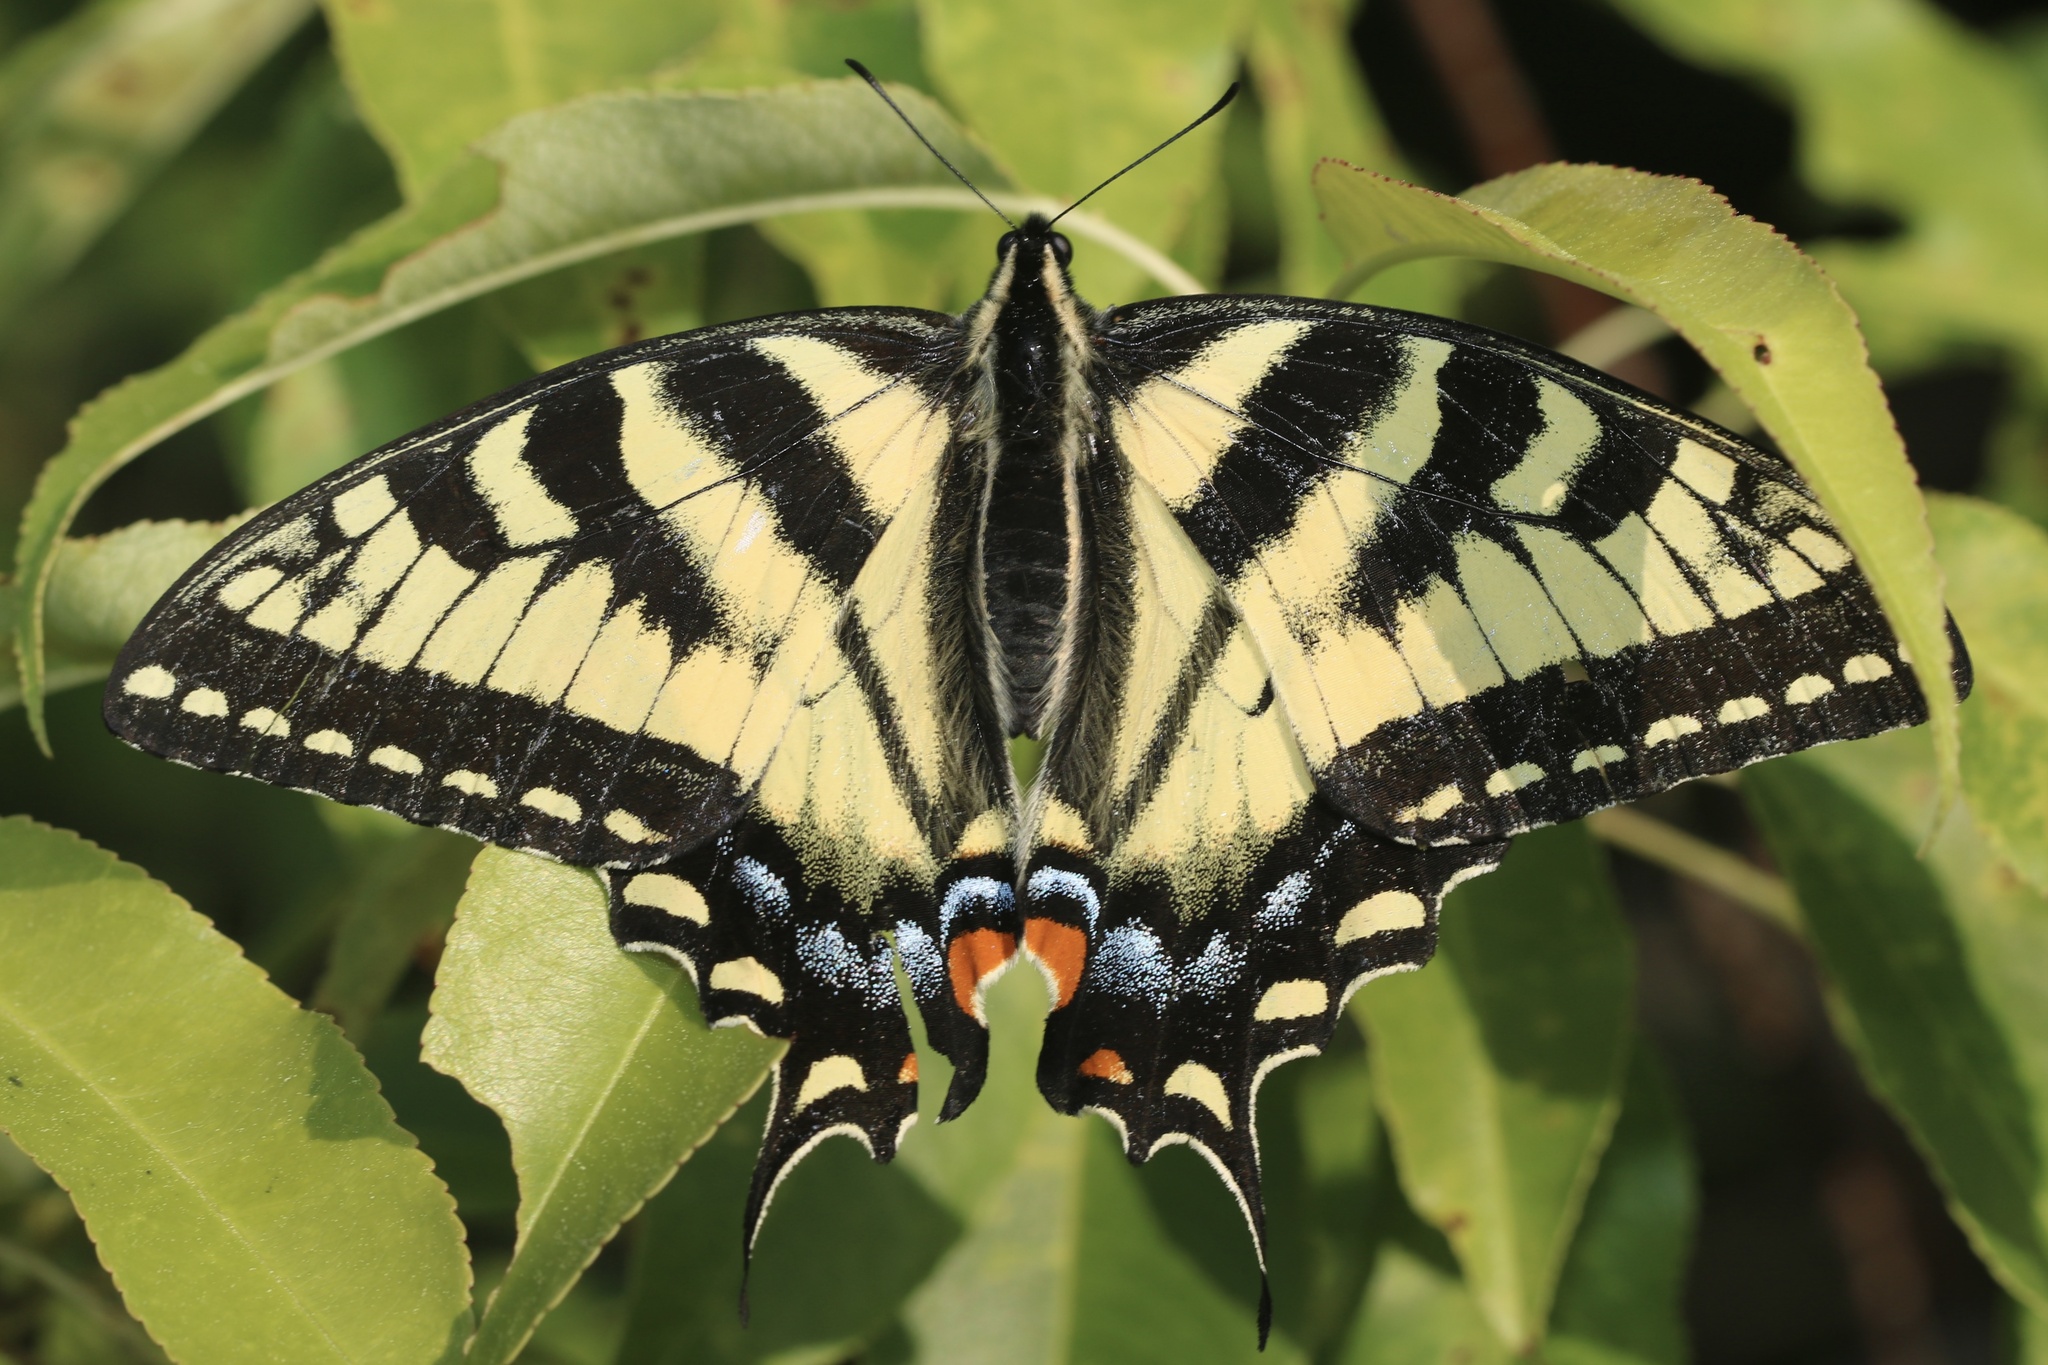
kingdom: Animalia
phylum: Arthropoda
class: Insecta
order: Lepidoptera
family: Papilionidae
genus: Papilio
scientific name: Papilio canadensis
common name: Canadian tiger swallowtail
